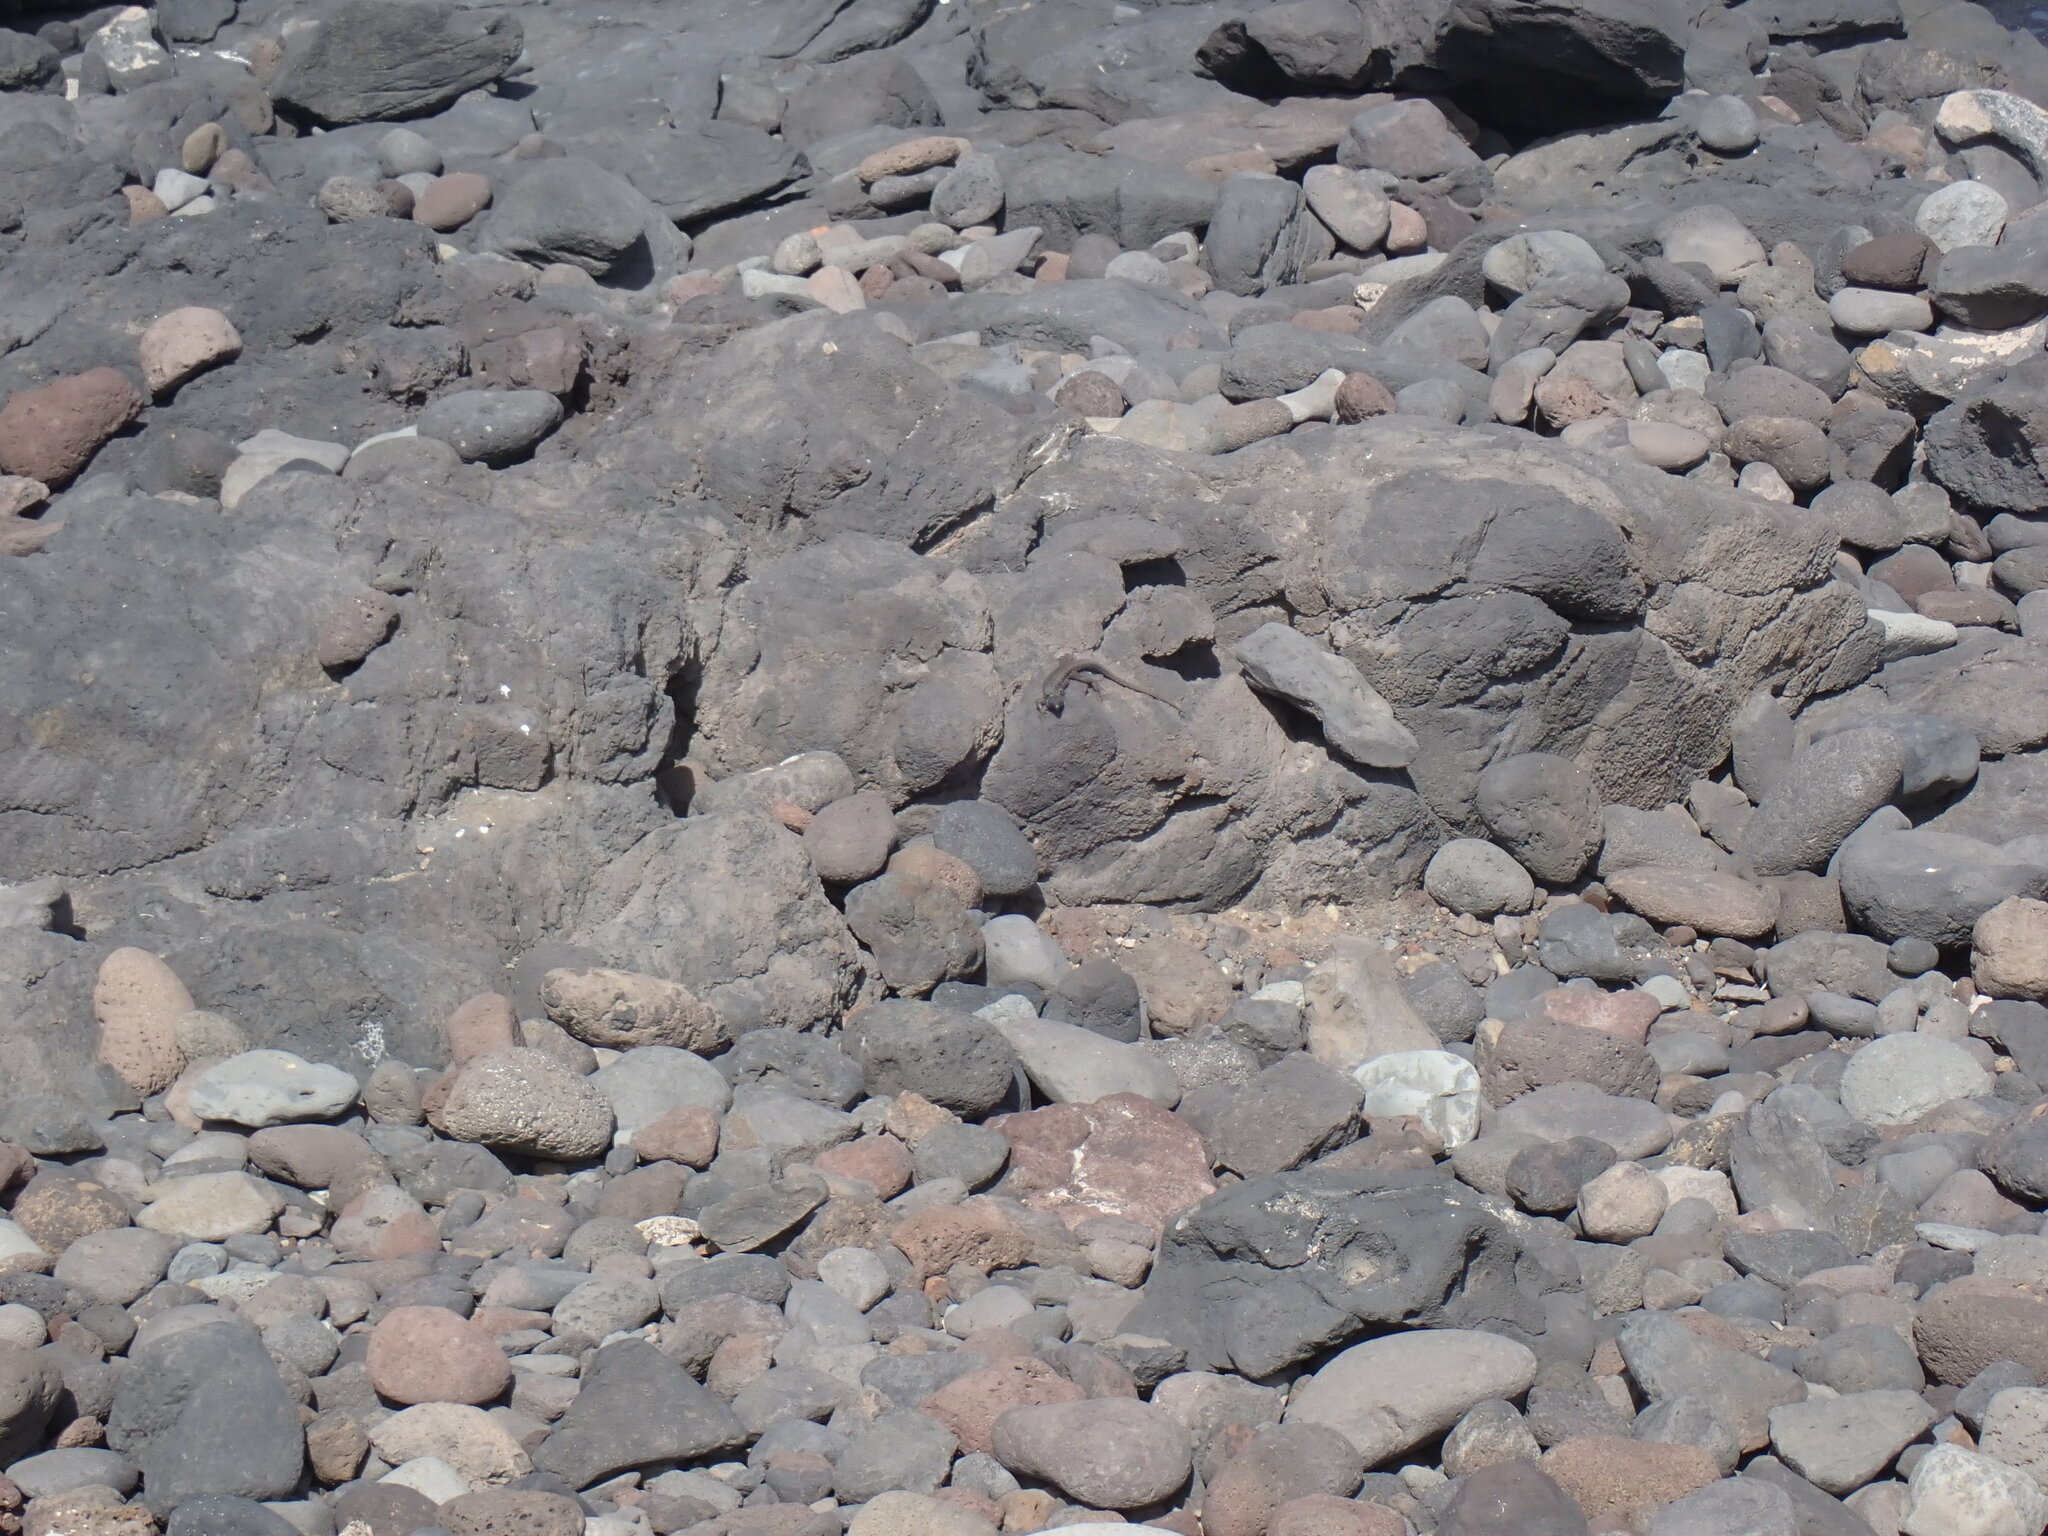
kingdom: Animalia
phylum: Chordata
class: Squamata
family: Lacertidae
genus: Gallotia
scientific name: Gallotia galloti
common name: Gallot's lizard
